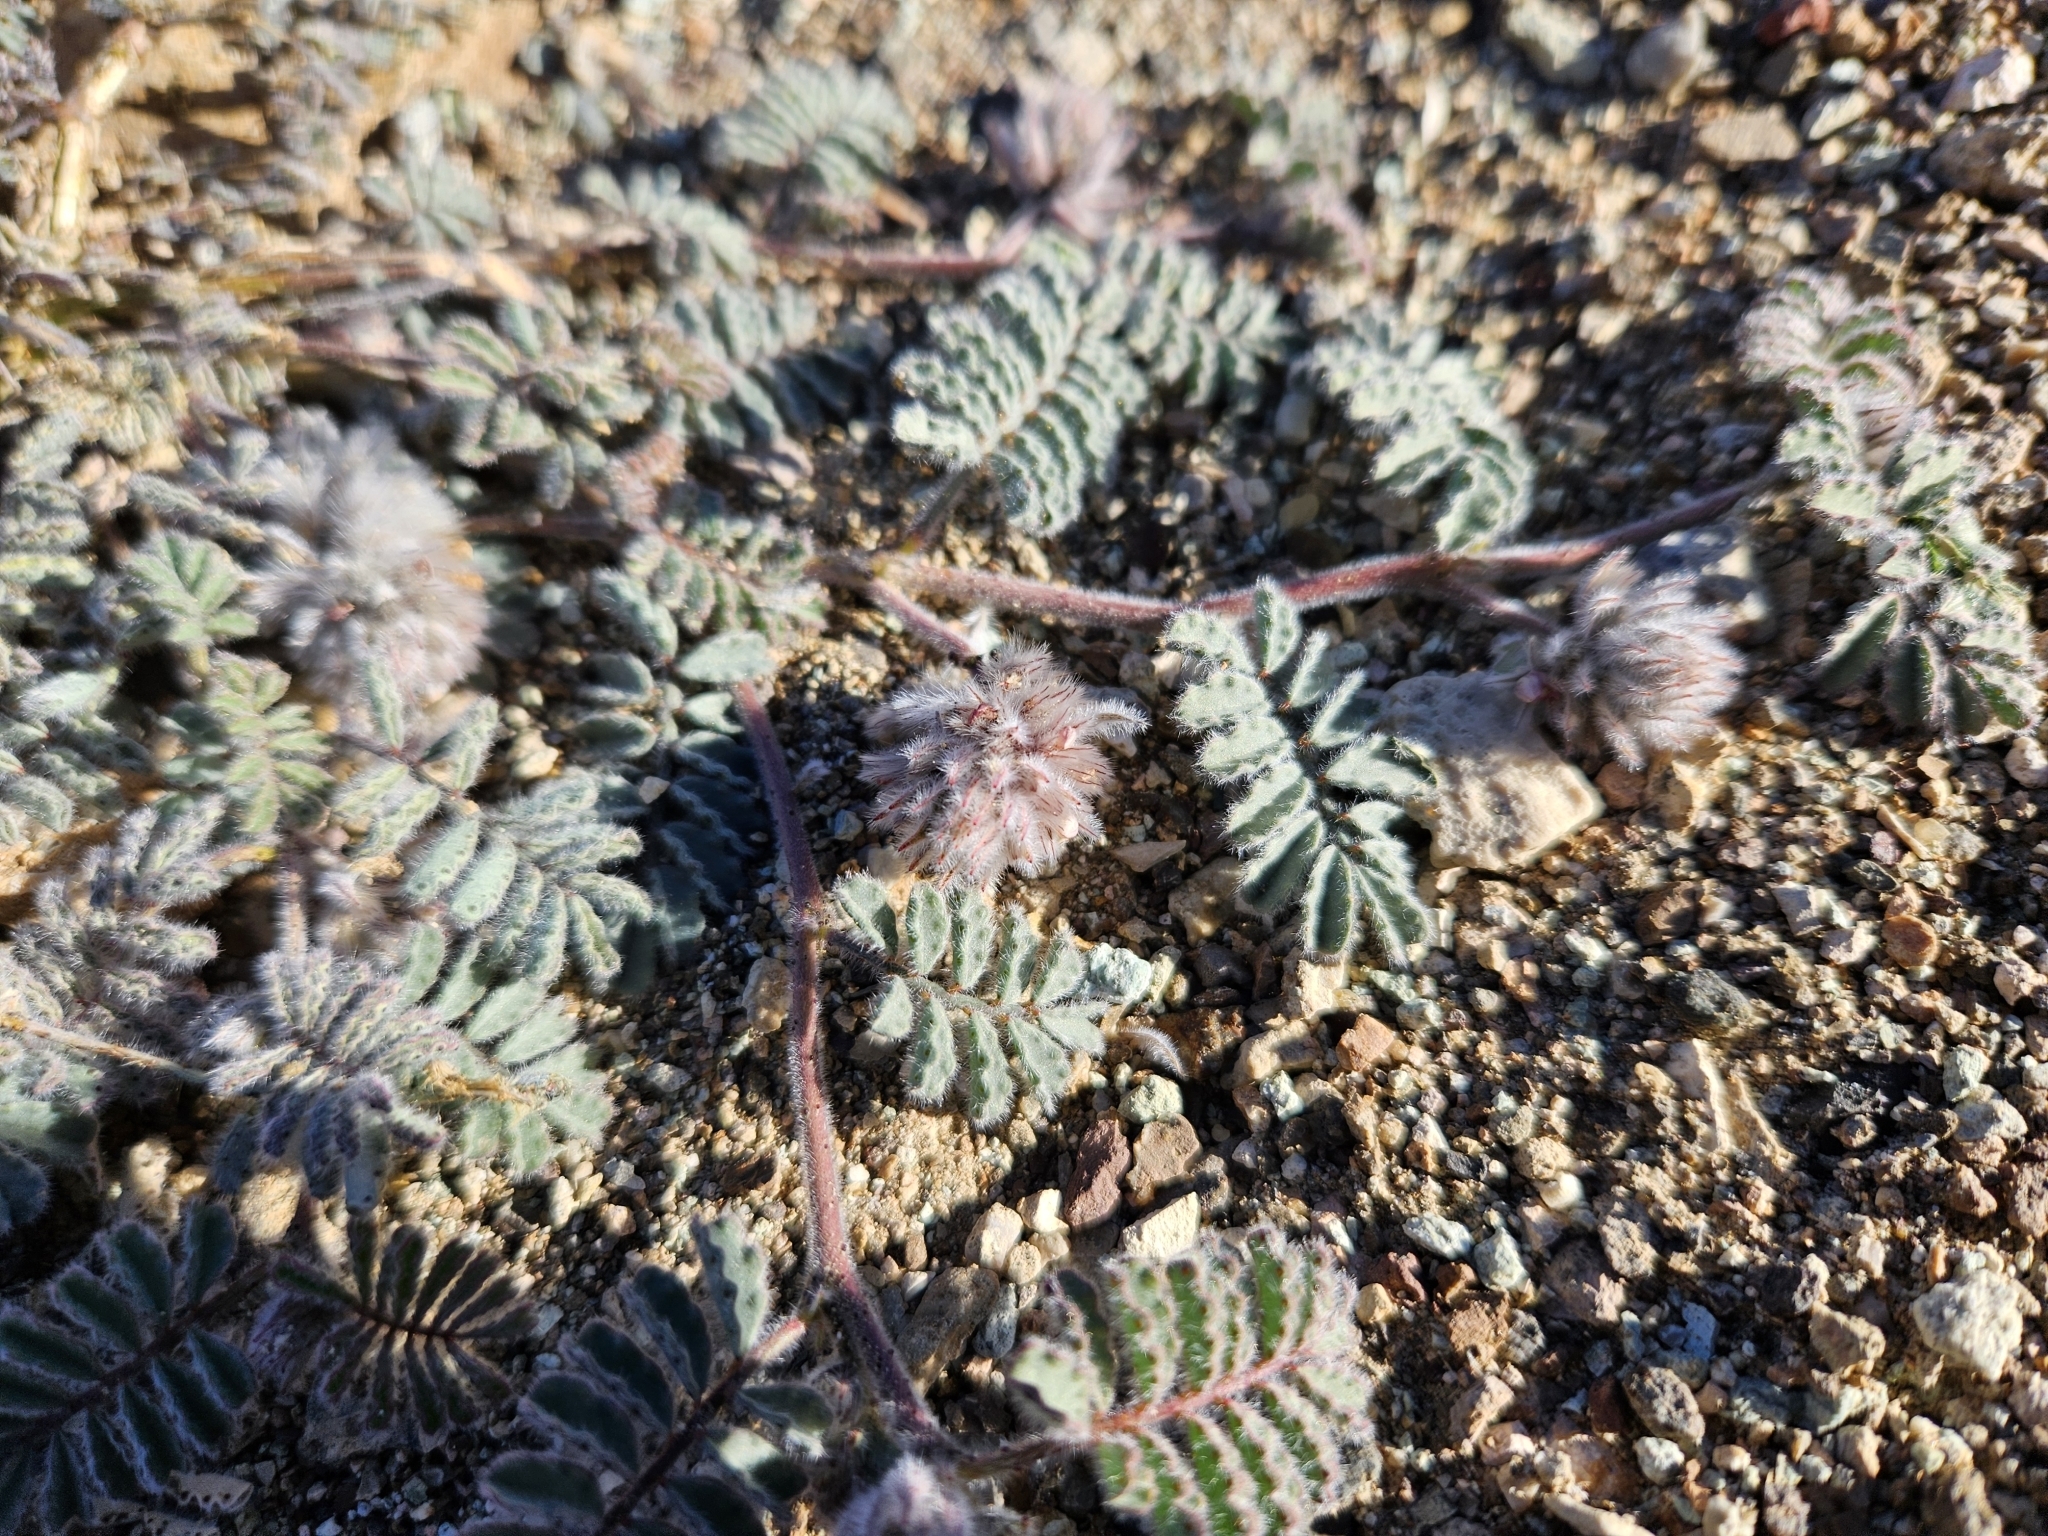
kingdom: Plantae
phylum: Tracheophyta
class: Magnoliopsida
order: Fabales
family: Fabaceae
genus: Dalea
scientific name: Dalea mollissima
